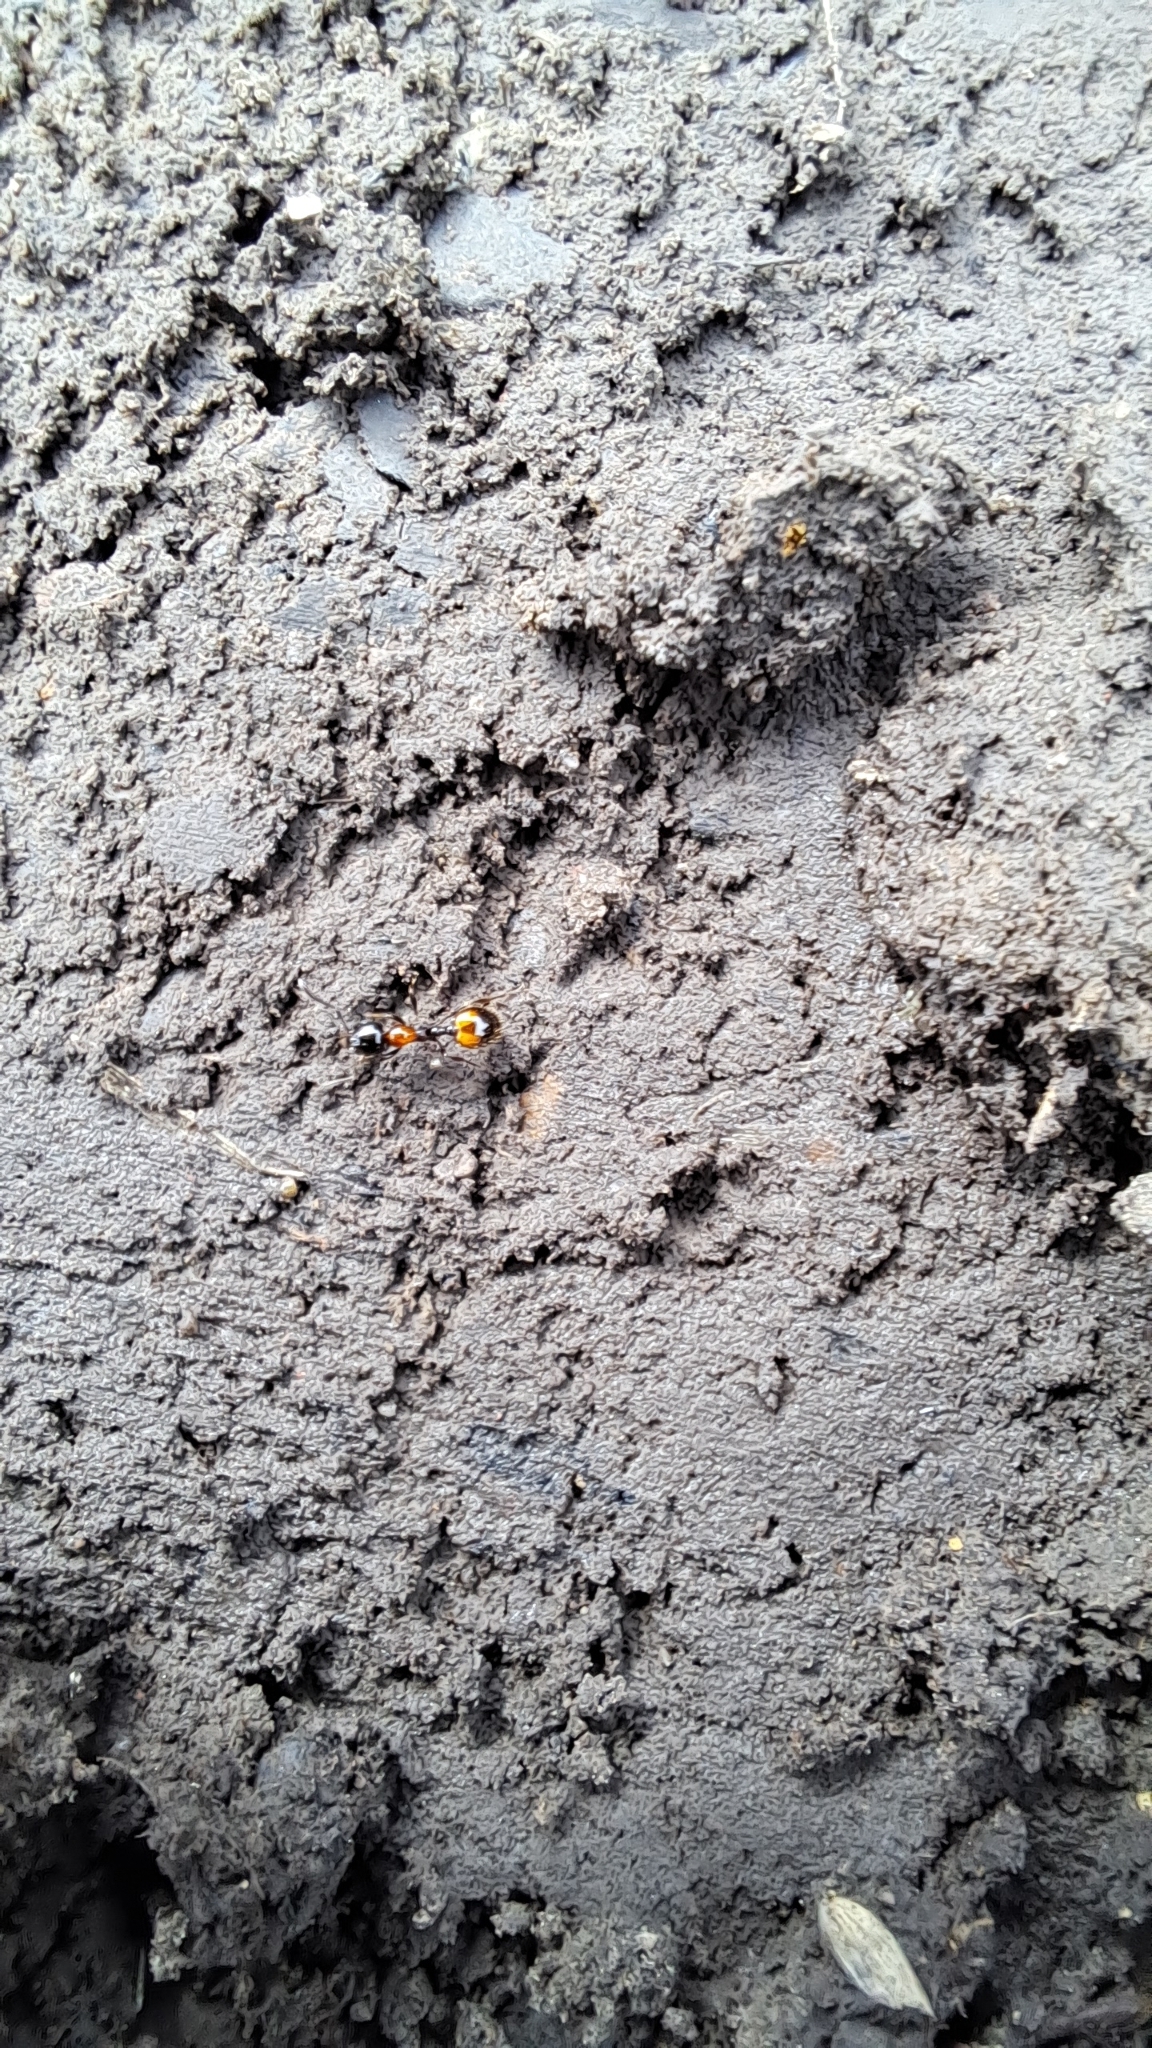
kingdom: Animalia
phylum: Arthropoda
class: Insecta
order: Hymenoptera
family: Formicidae
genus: Chelaner
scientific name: Chelaner
